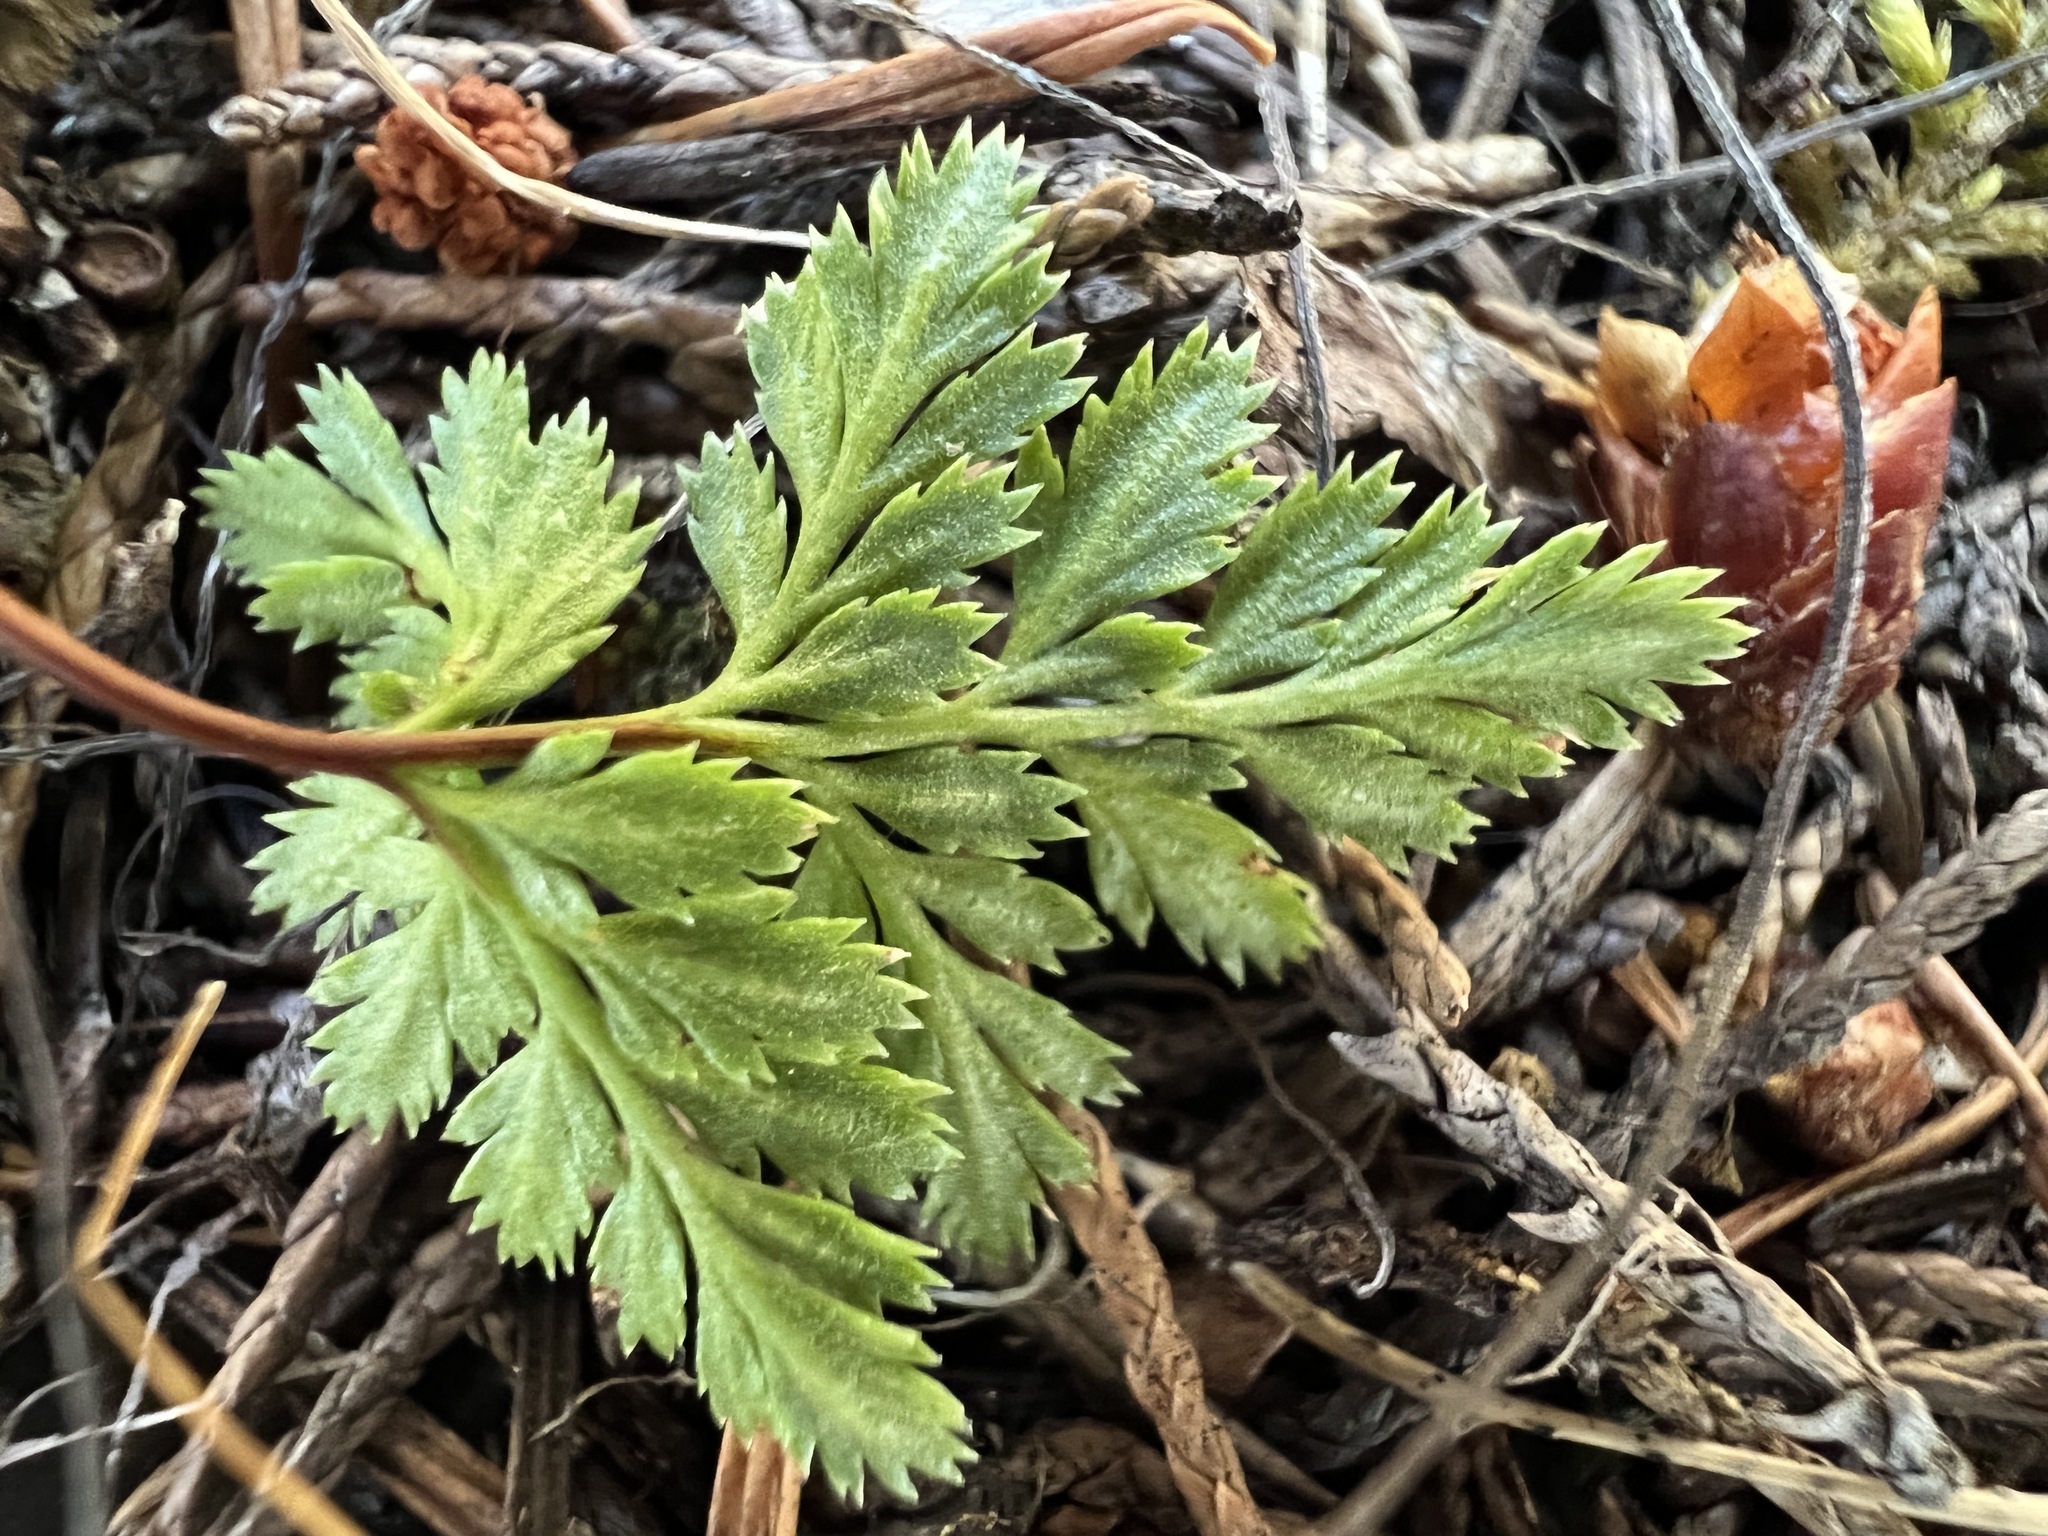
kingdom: Plantae
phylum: Tracheophyta
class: Polypodiopsida
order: Polypodiales
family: Pteridaceae
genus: Aspidotis
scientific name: Aspidotis densa
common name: Indian's dream
